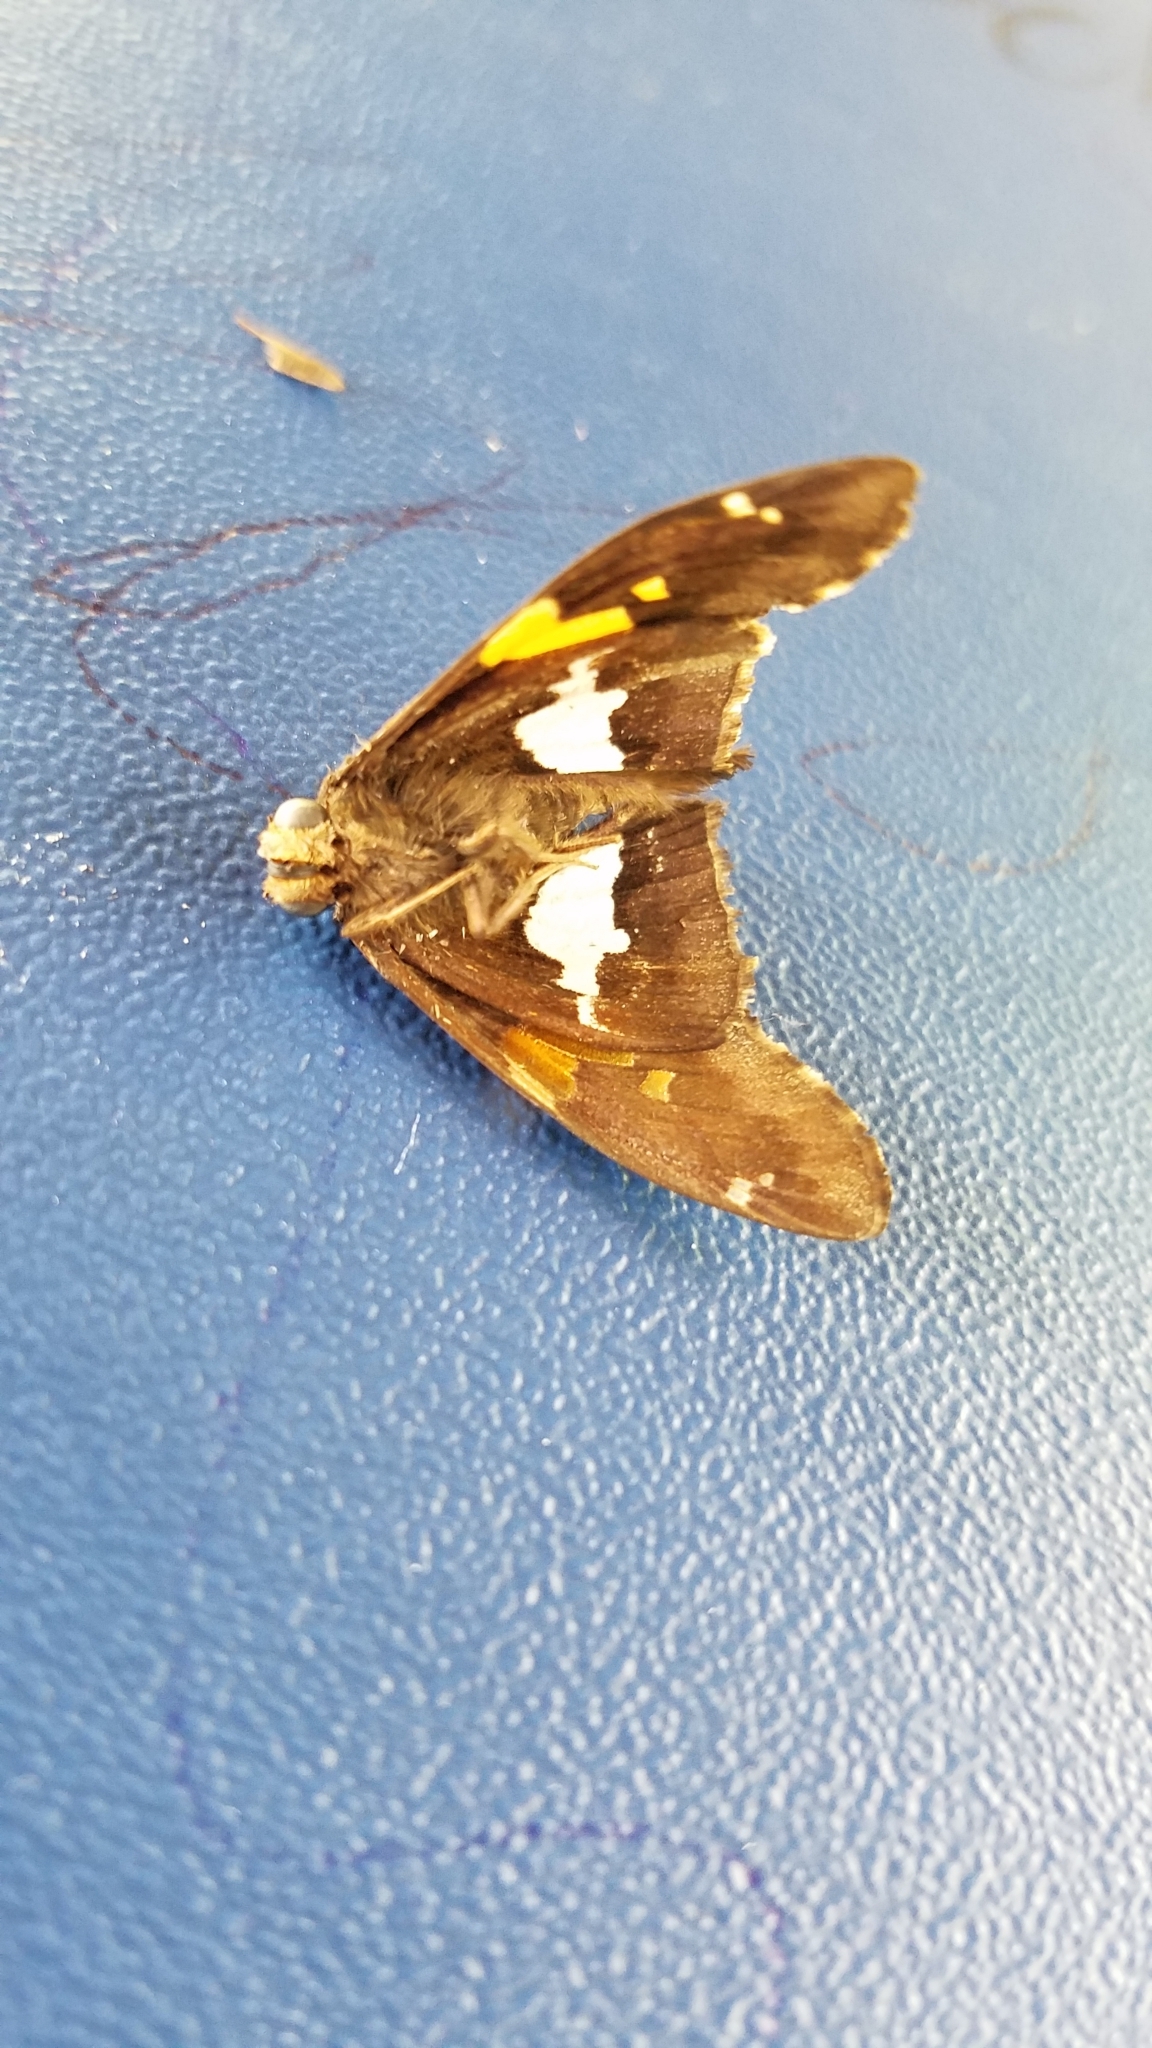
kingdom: Animalia
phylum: Arthropoda
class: Insecta
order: Lepidoptera
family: Hesperiidae
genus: Epargyreus
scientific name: Epargyreus clarus
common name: Silver-spotted skipper
